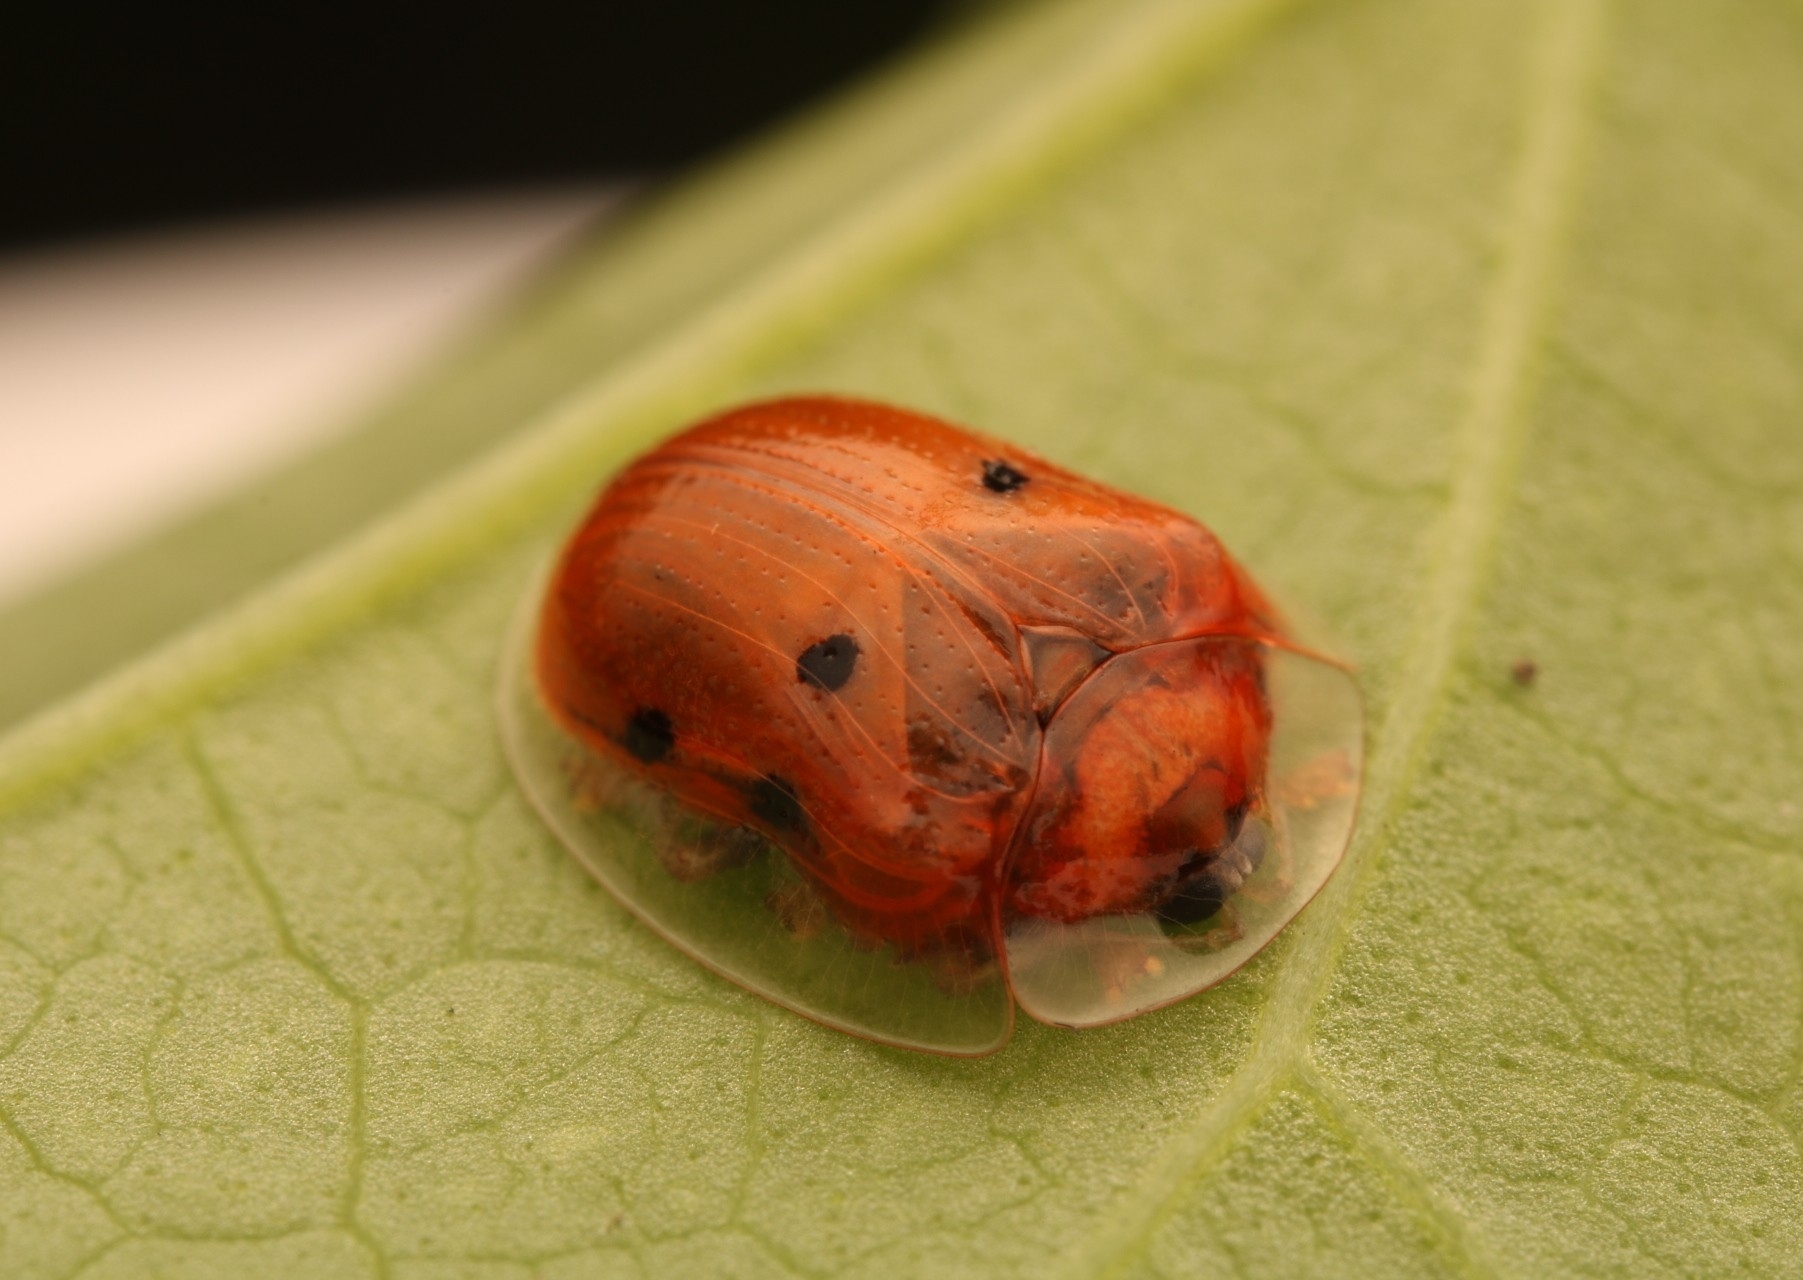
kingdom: Animalia
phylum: Arthropoda
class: Insecta
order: Coleoptera
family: Chrysomelidae
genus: Charidotella
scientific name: Charidotella sexpunctata
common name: Golden tortoise beetle
